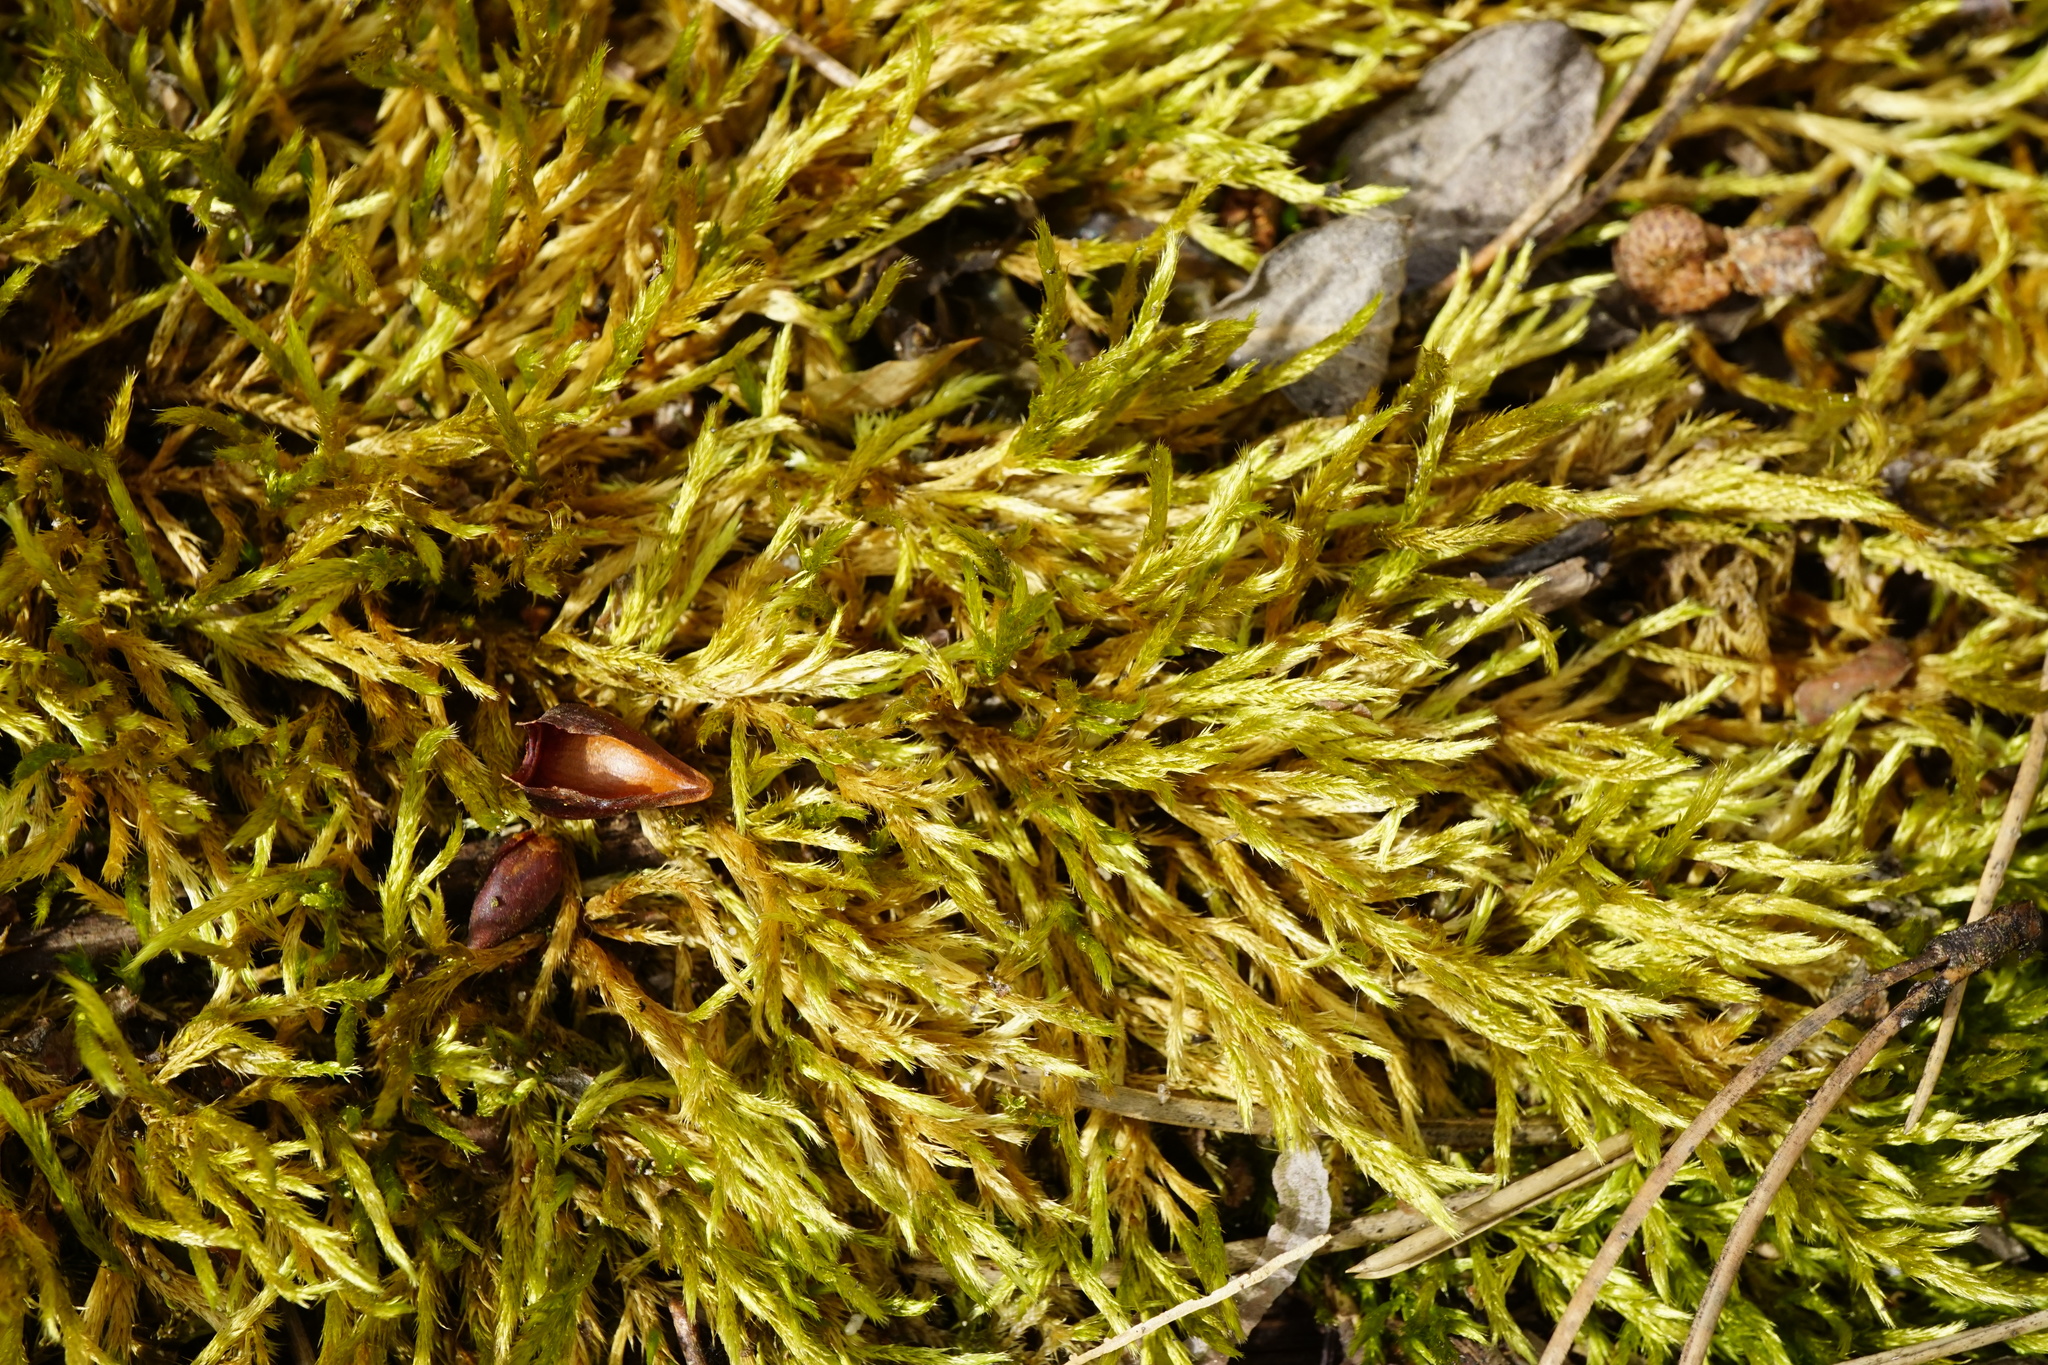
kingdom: Plantae
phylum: Bryophyta
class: Bryopsida
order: Hypnales
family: Brachytheciaceae
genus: Homalothecium
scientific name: Homalothecium lutescens
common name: Yellow feather-moss
